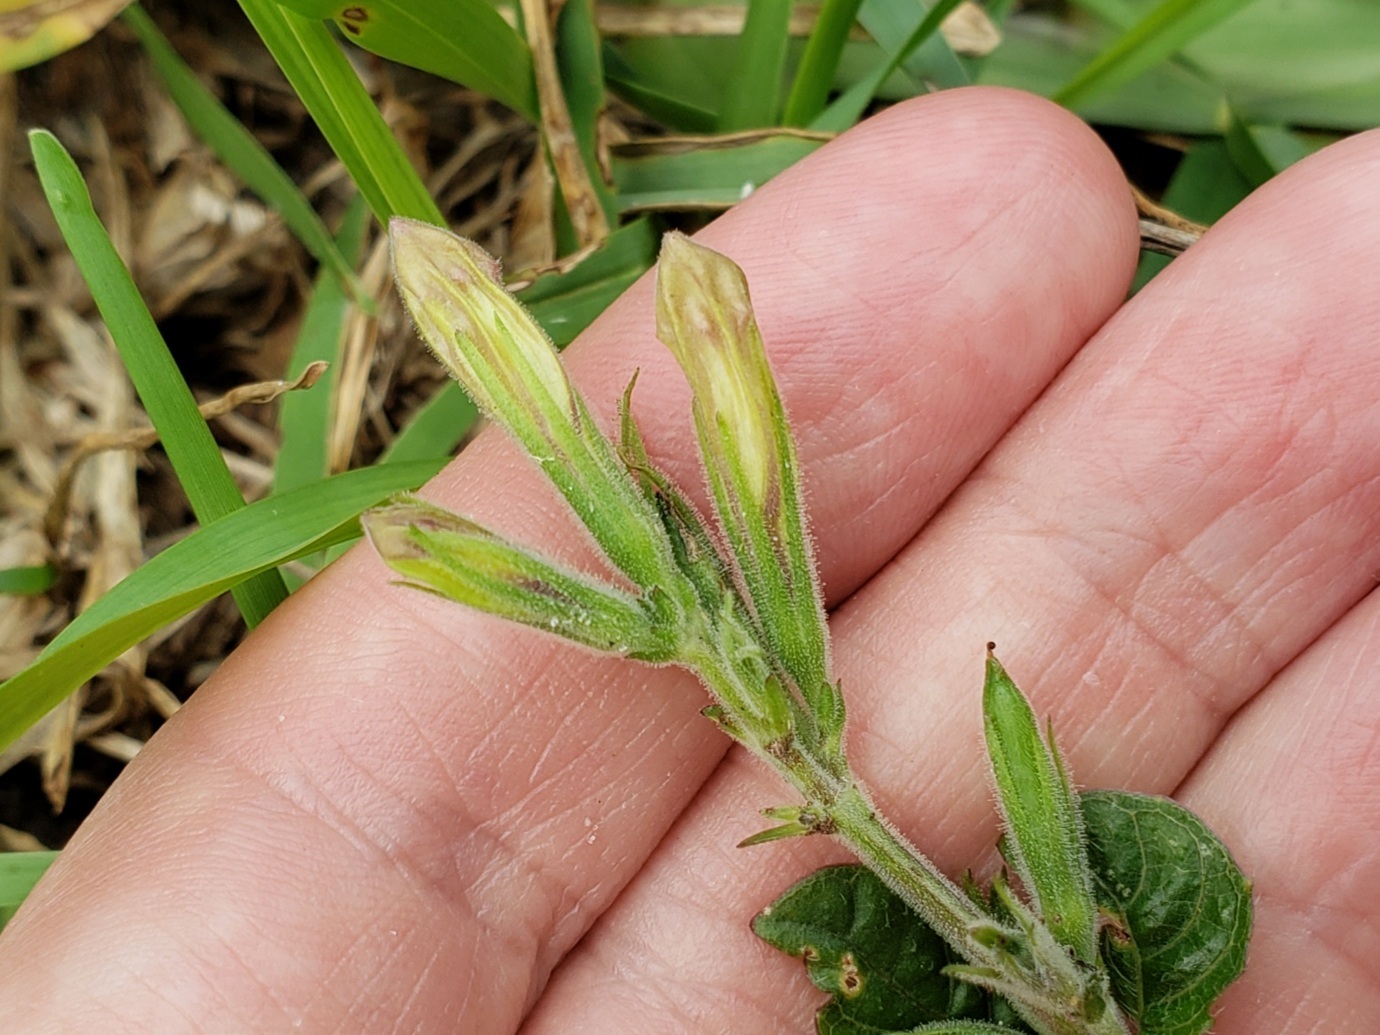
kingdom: Plantae
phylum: Tracheophyta
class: Magnoliopsida
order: Lamiales
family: Acanthaceae
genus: Ruellia
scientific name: Ruellia caroliniensis
